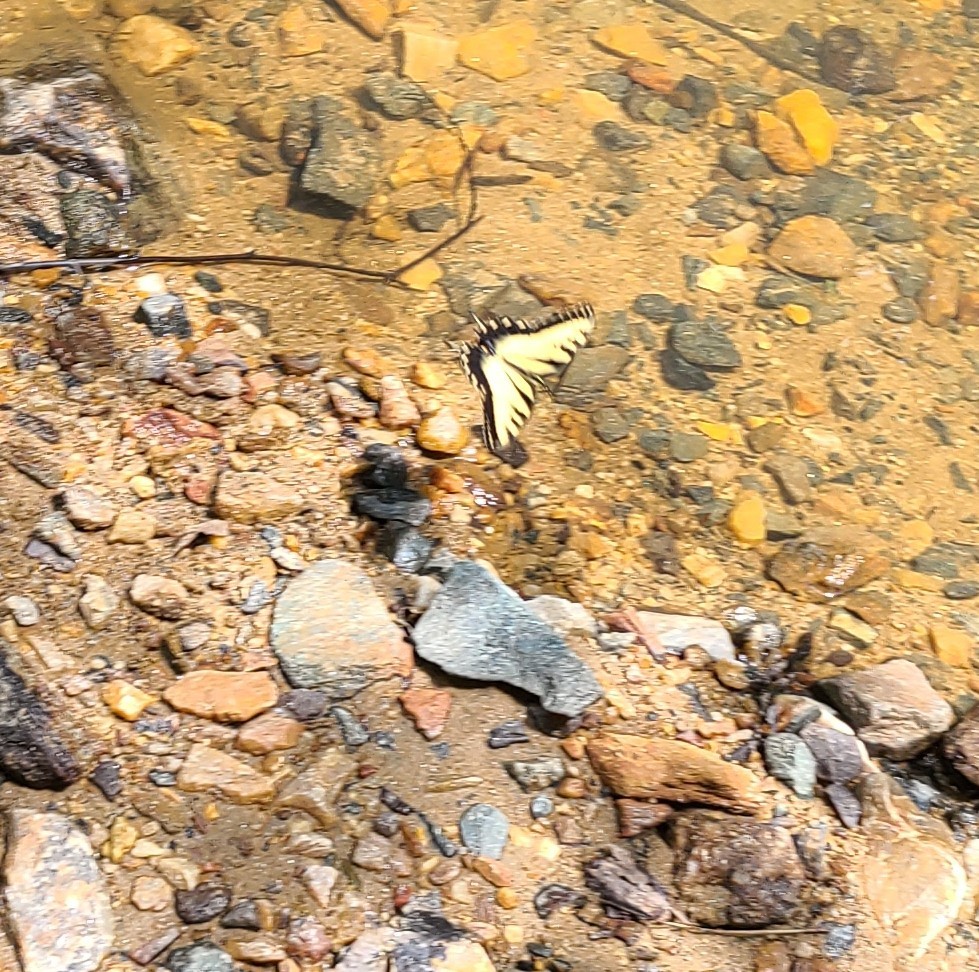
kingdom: Animalia
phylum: Arthropoda
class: Insecta
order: Lepidoptera
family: Papilionidae
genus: Papilio
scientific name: Papilio glaucus
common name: Tiger swallowtail
